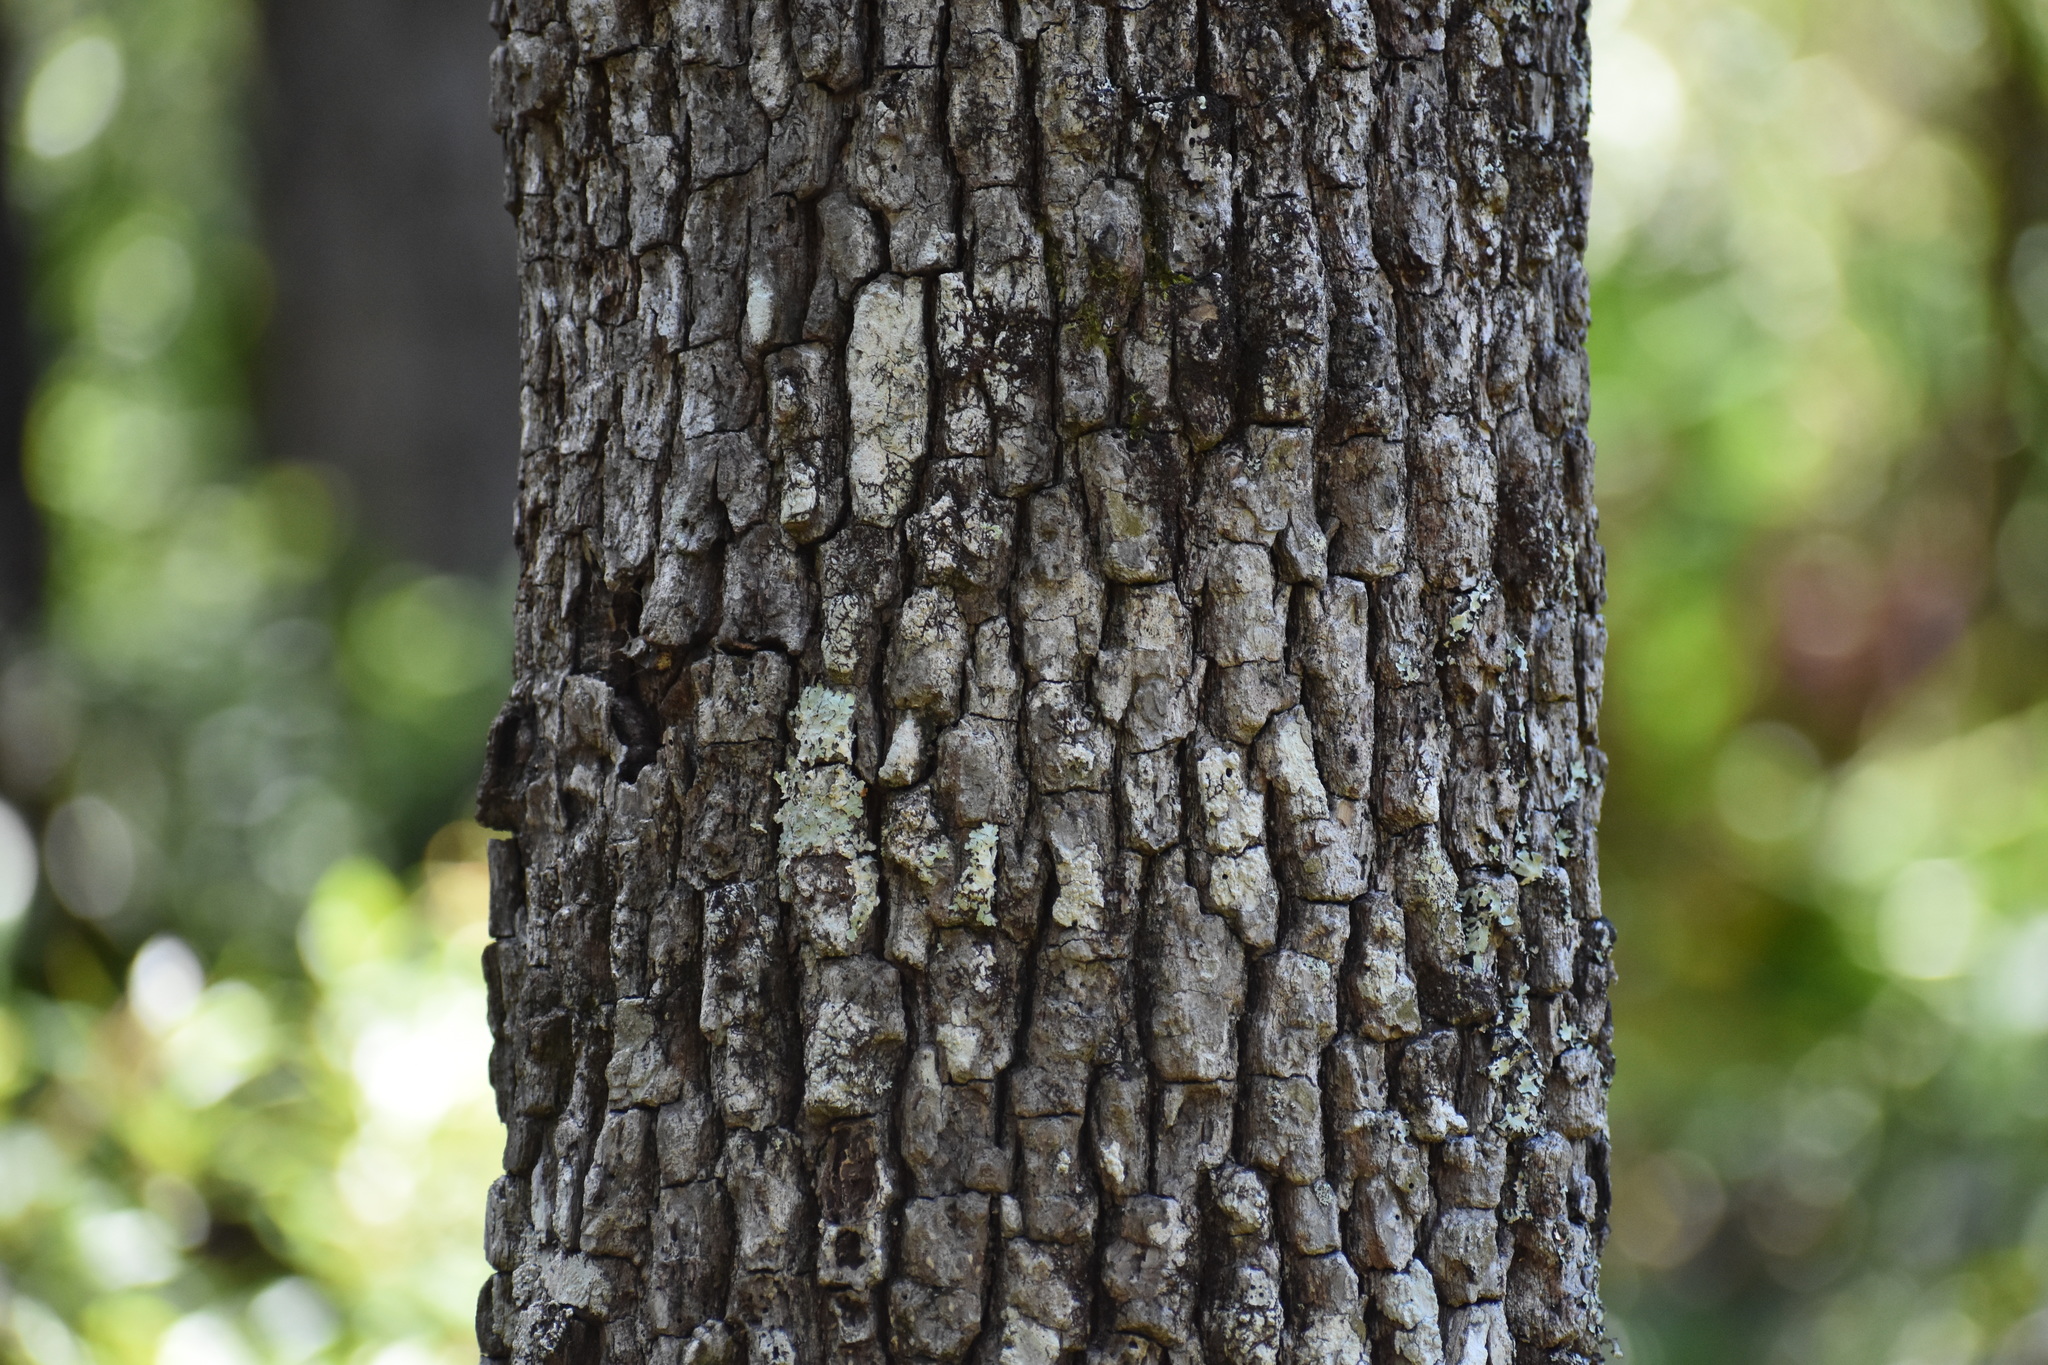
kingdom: Plantae
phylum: Tracheophyta
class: Magnoliopsida
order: Ericales
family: Ebenaceae
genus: Diospyros
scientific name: Diospyros virginiana
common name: Persimmon
